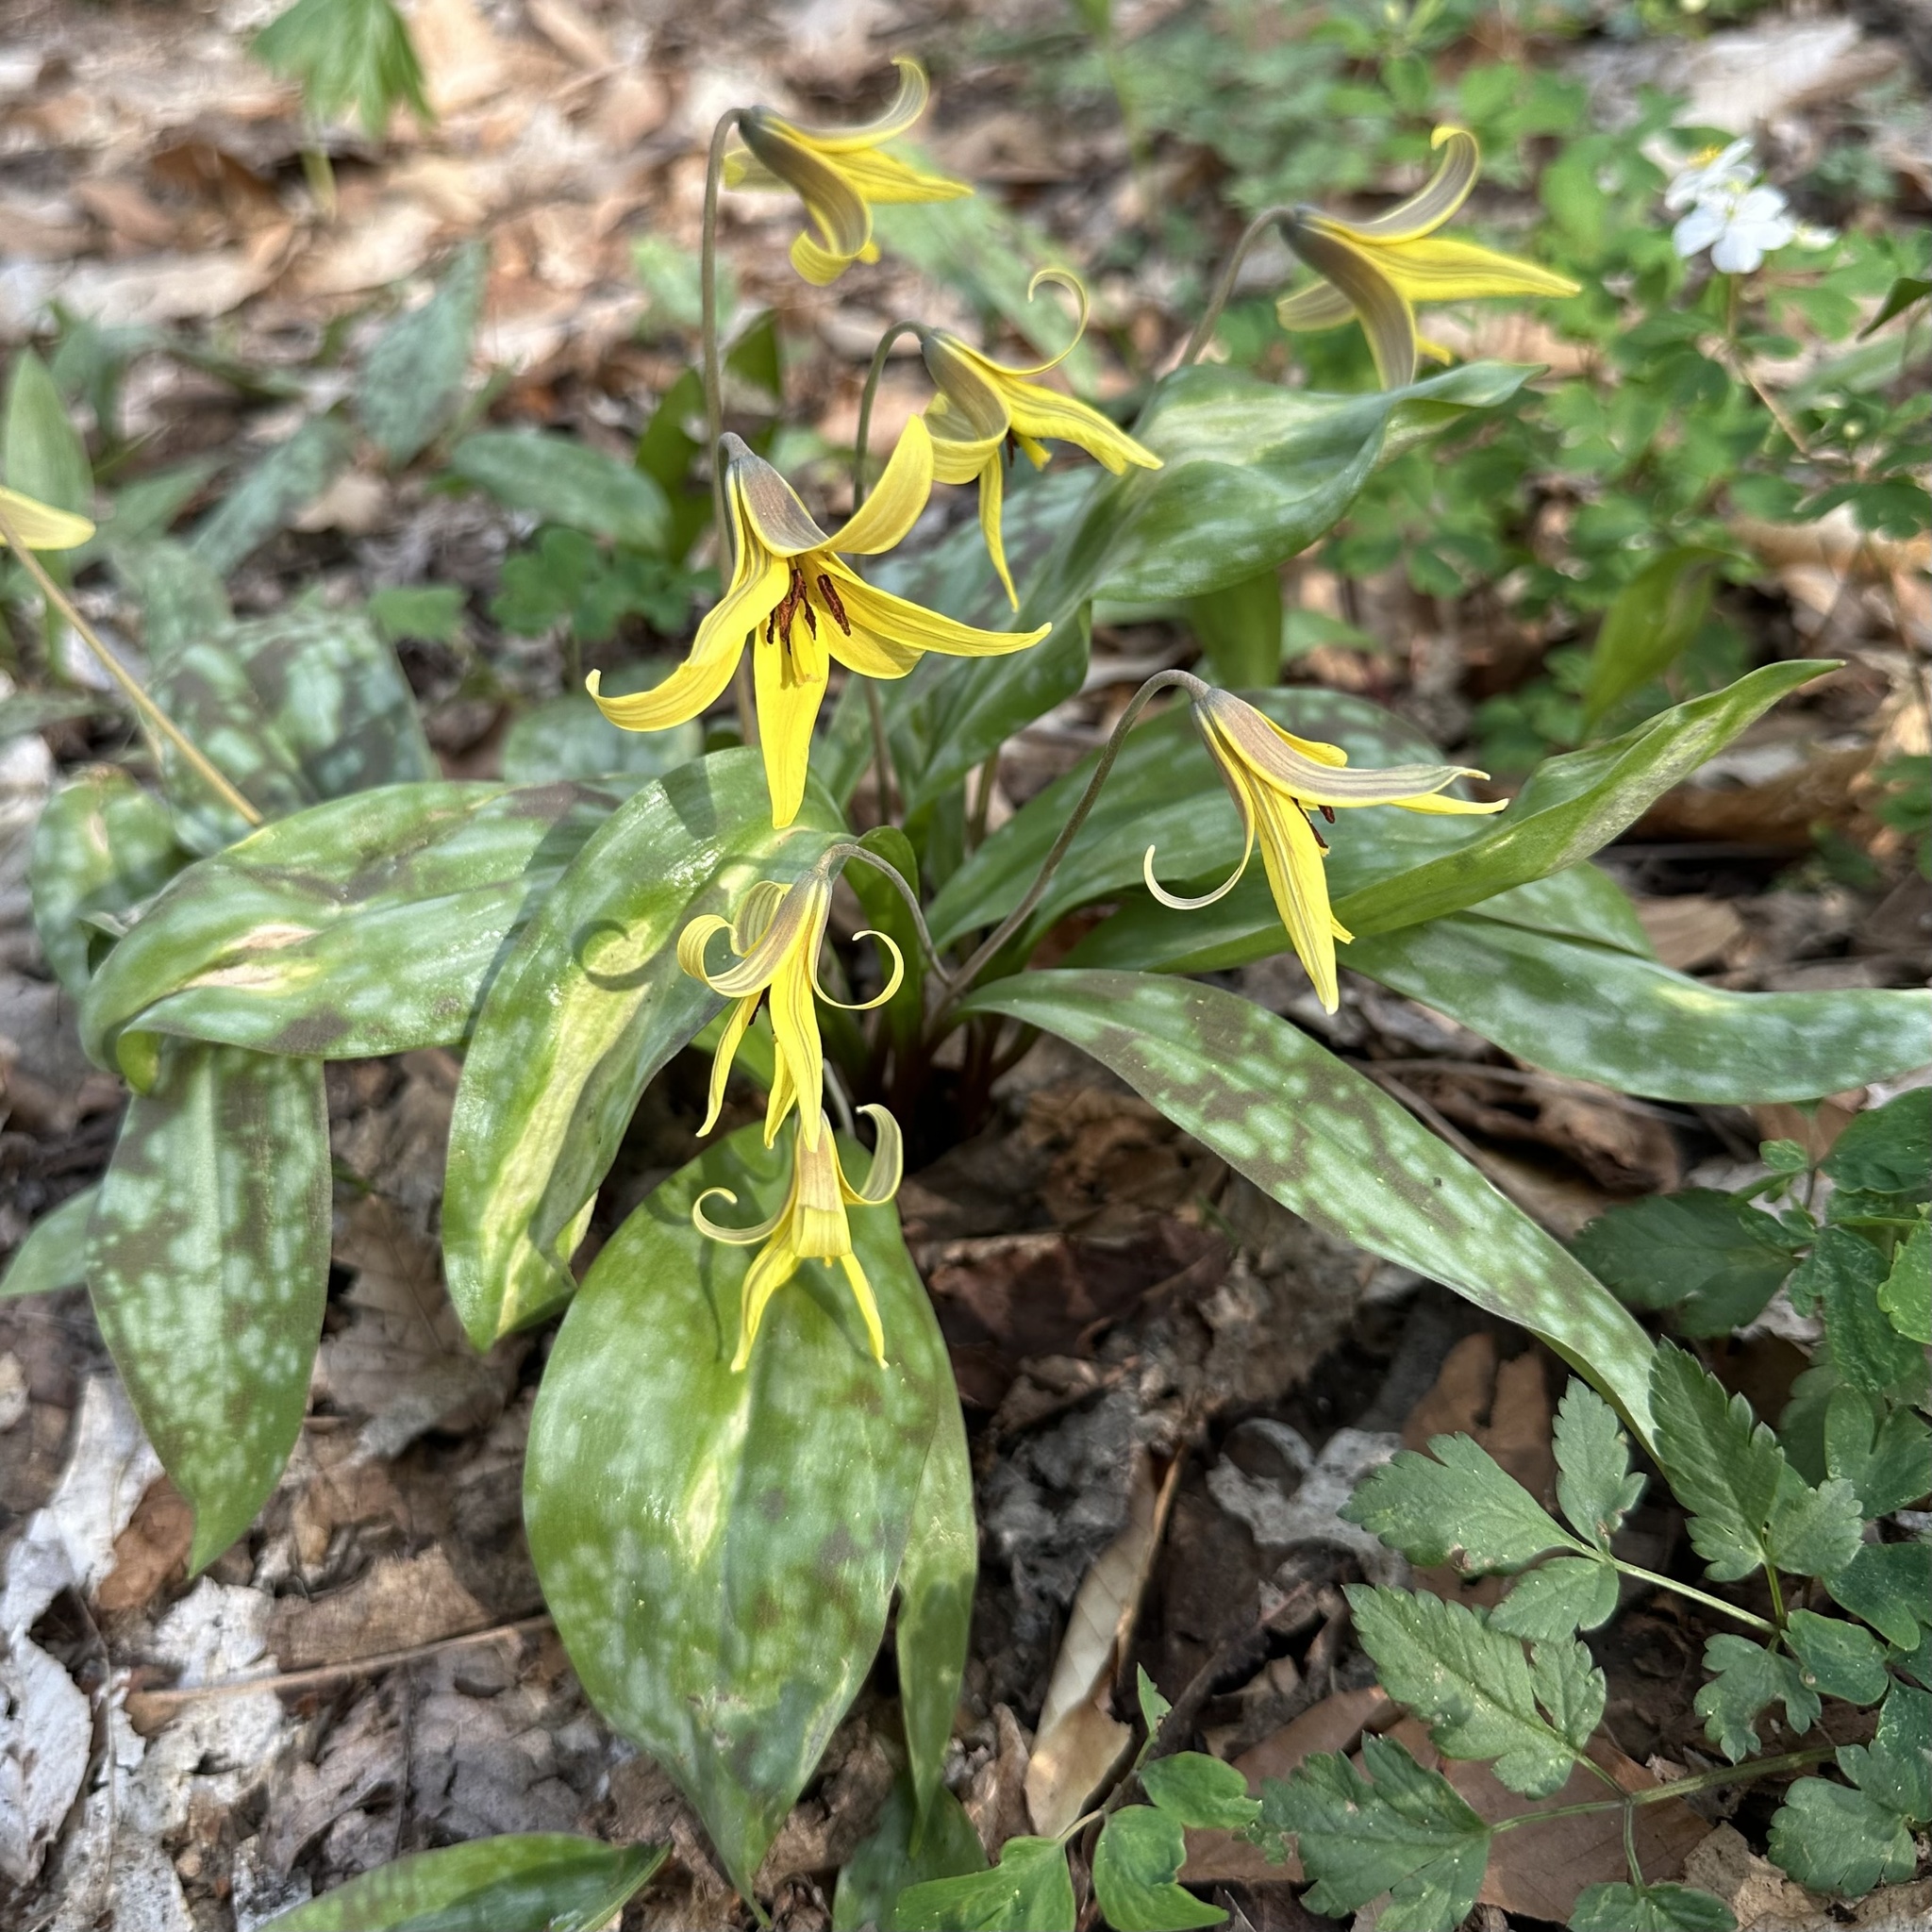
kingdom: Plantae
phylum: Tracheophyta
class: Liliopsida
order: Liliales
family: Liliaceae
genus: Erythronium
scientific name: Erythronium americanum
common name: Yellow adder's-tongue
